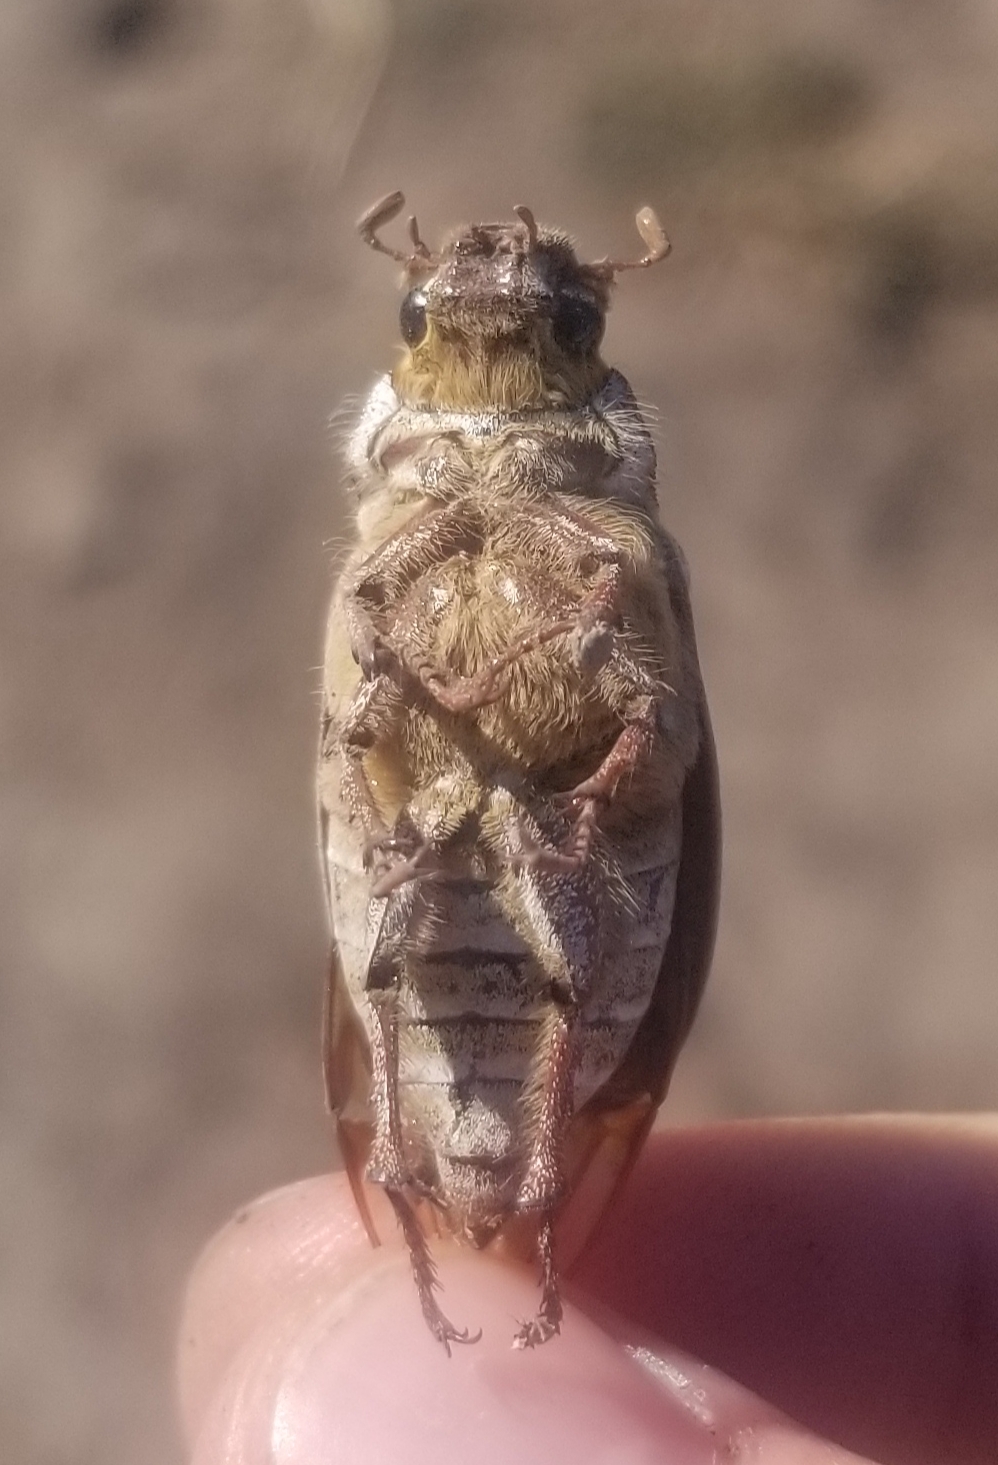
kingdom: Animalia
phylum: Arthropoda
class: Insecta
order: Coleoptera
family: Scarabaeidae
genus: Polyphylla
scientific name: Polyphylla decemlineata
